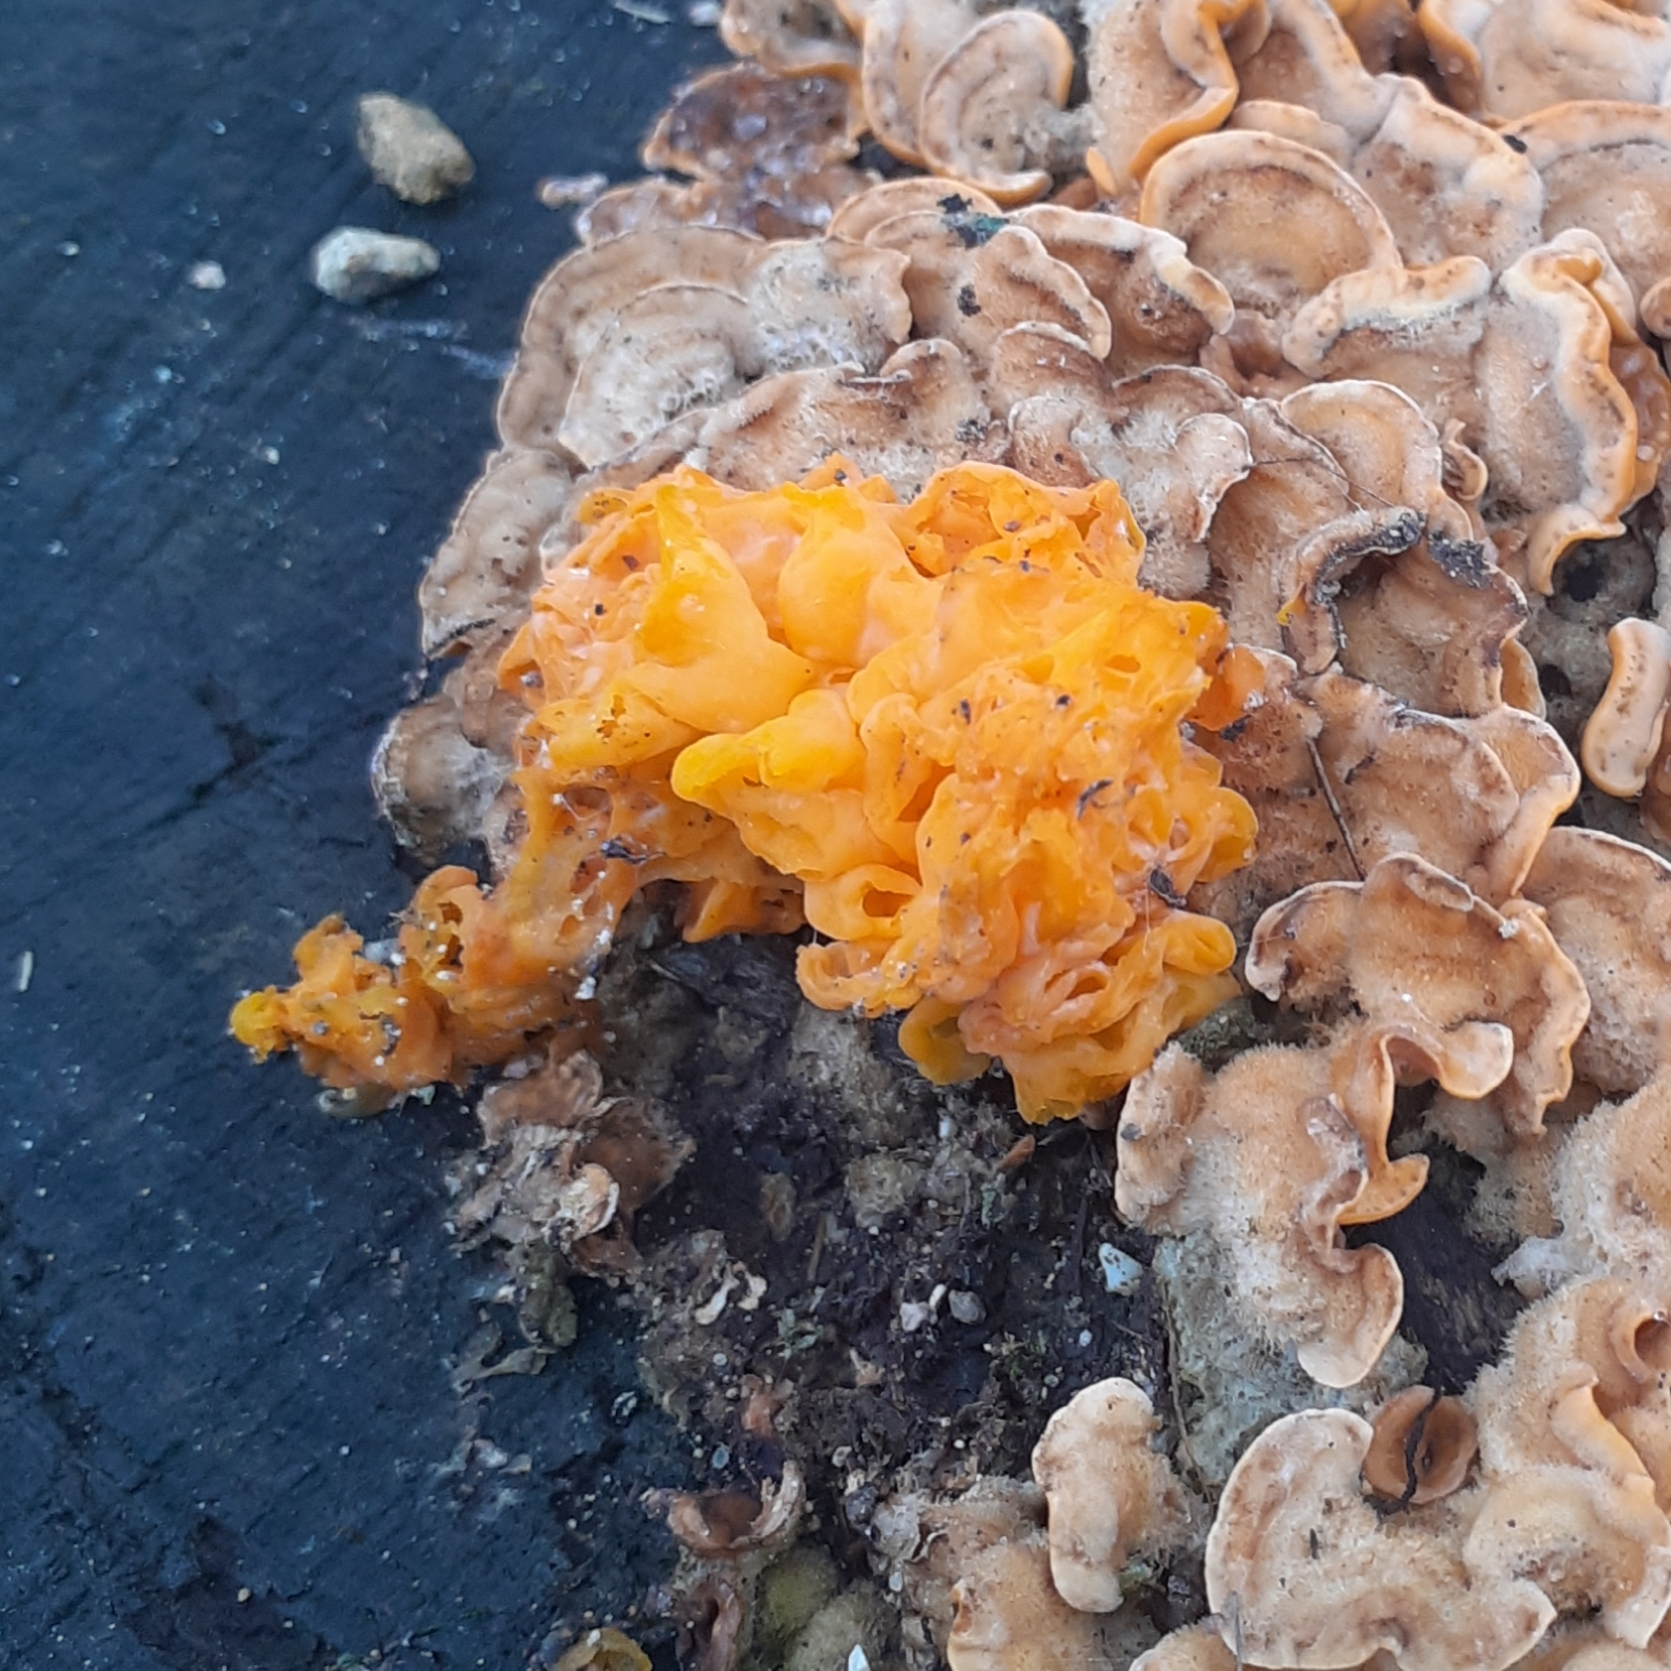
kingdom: Fungi
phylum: Basidiomycota
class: Tremellomycetes
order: Tremellales
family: Naemateliaceae
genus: Naematelia
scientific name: Naematelia aurantia
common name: Golden ear
